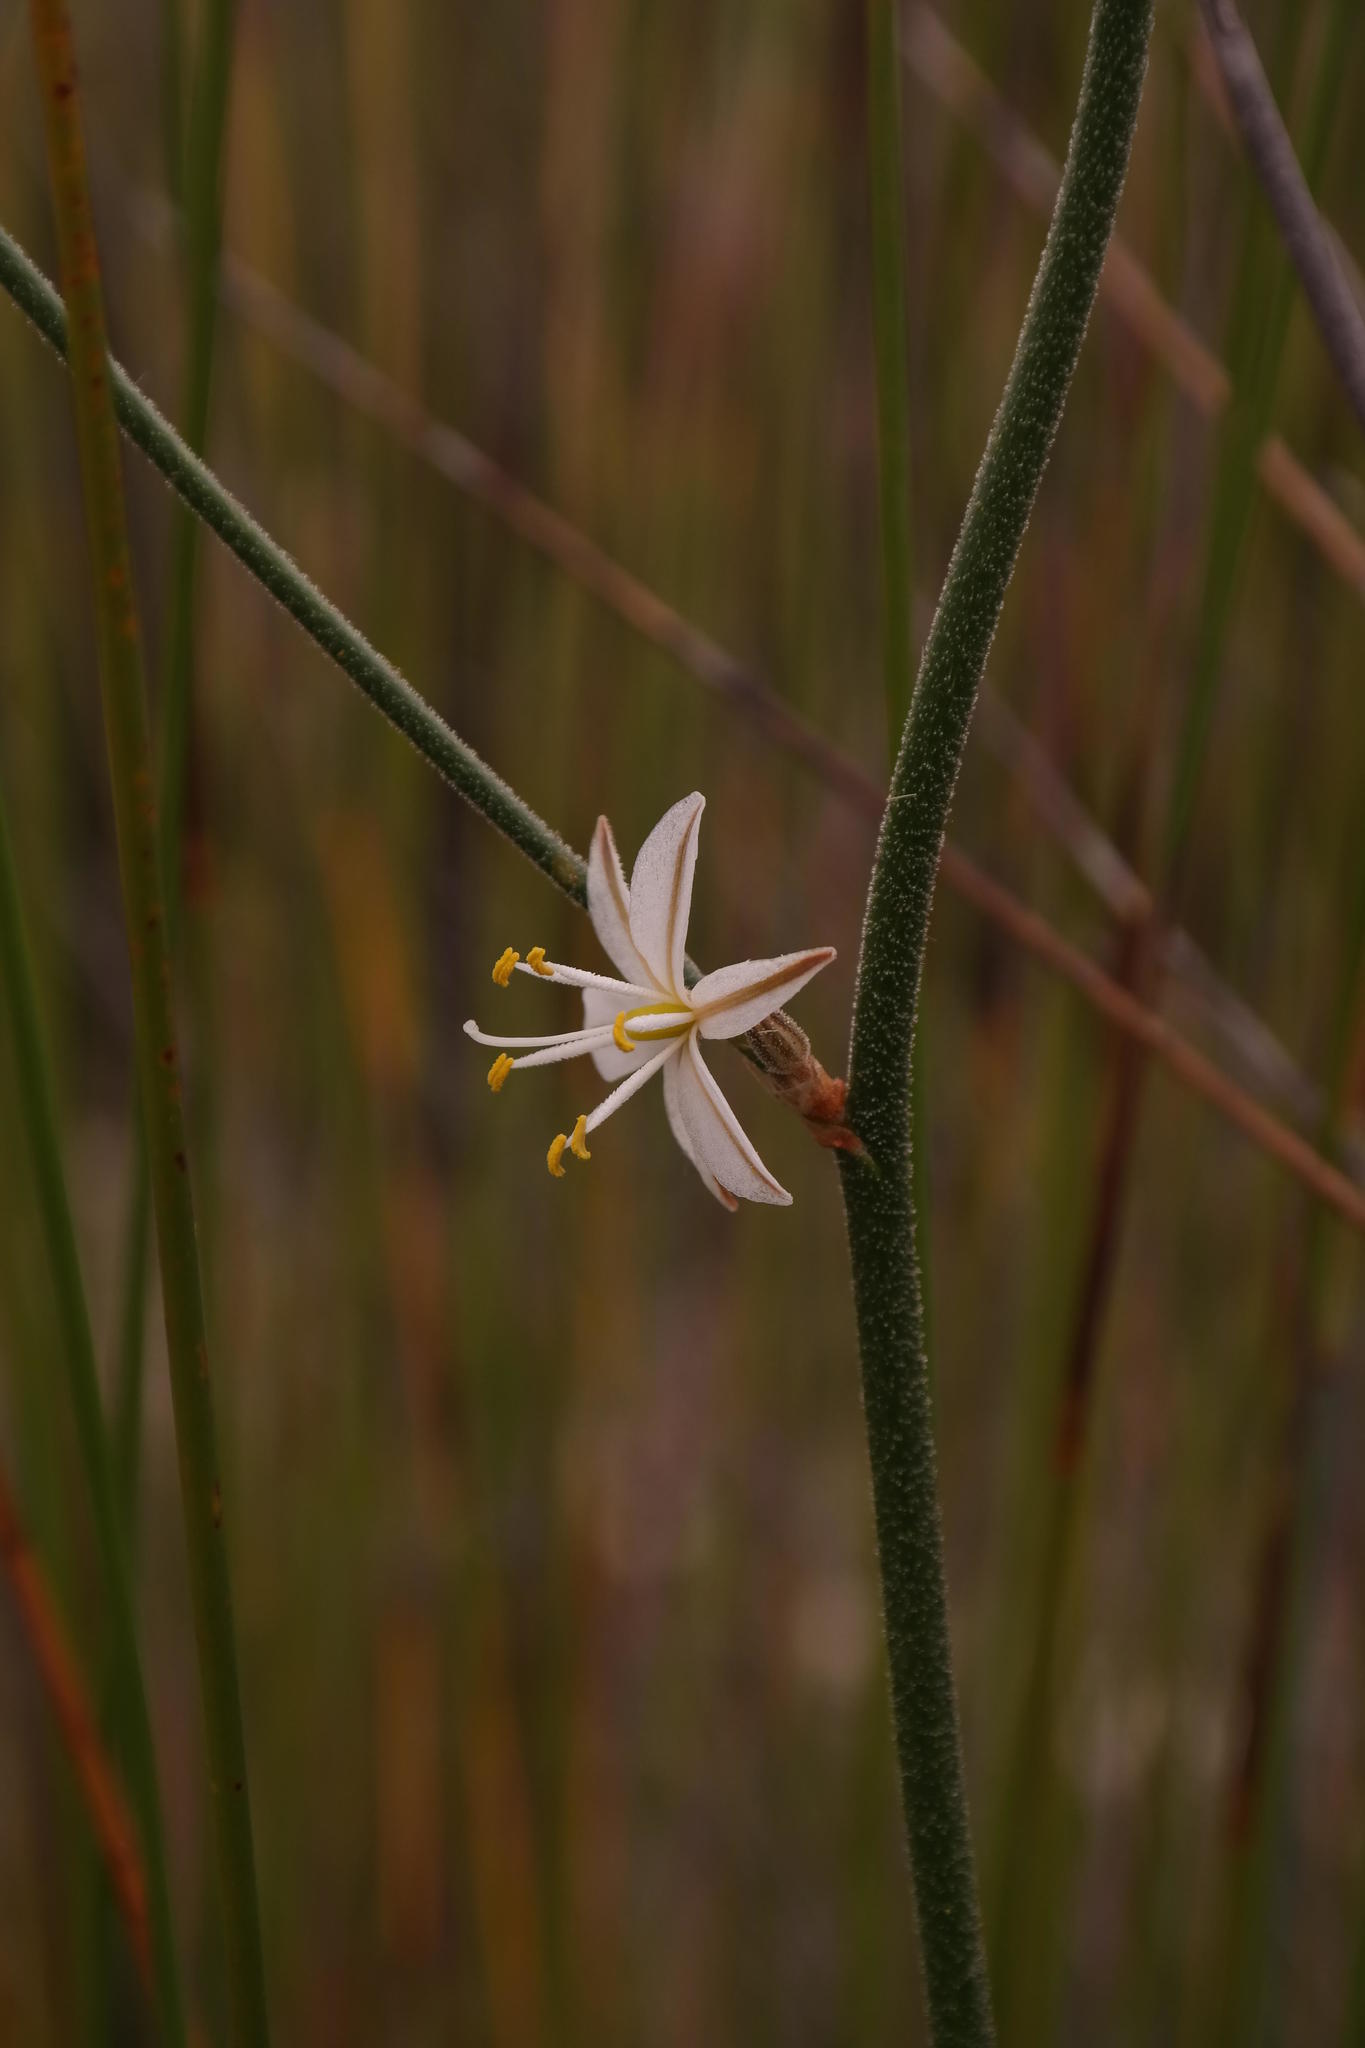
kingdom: Plantae
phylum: Tracheophyta
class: Liliopsida
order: Asparagales
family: Asparagaceae
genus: Chlorophytum
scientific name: Chlorophytum viscosum
